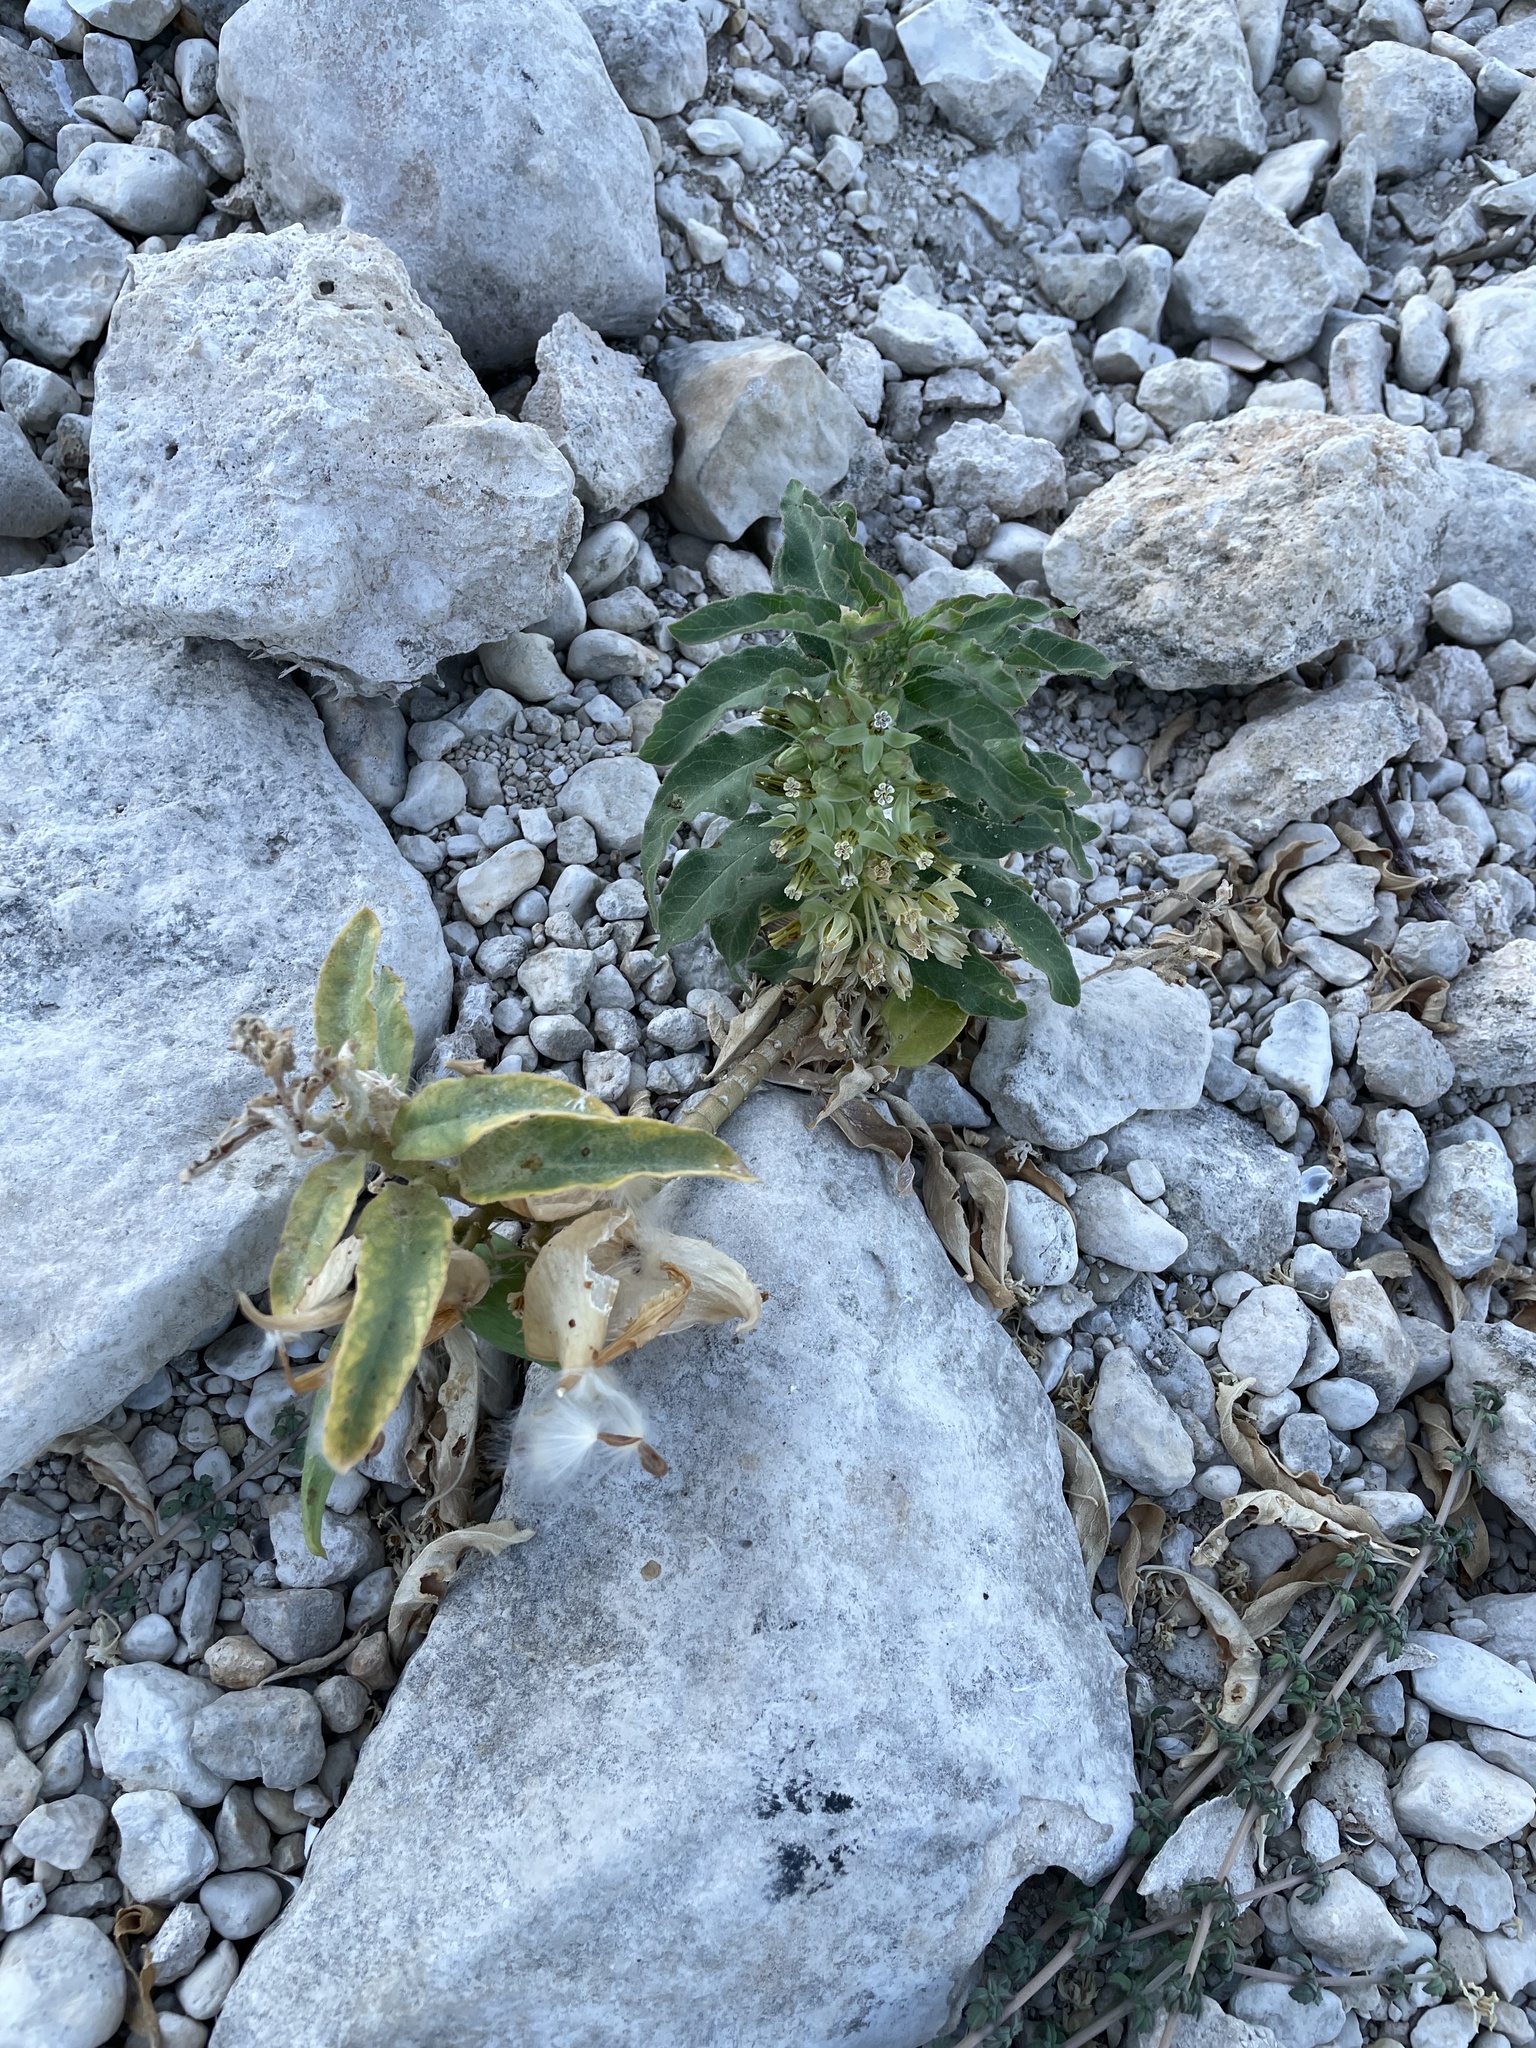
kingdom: Plantae
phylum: Tracheophyta
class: Magnoliopsida
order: Gentianales
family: Apocynaceae
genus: Asclepias
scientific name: Asclepias oenotheroides
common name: Zizotes milkweed
